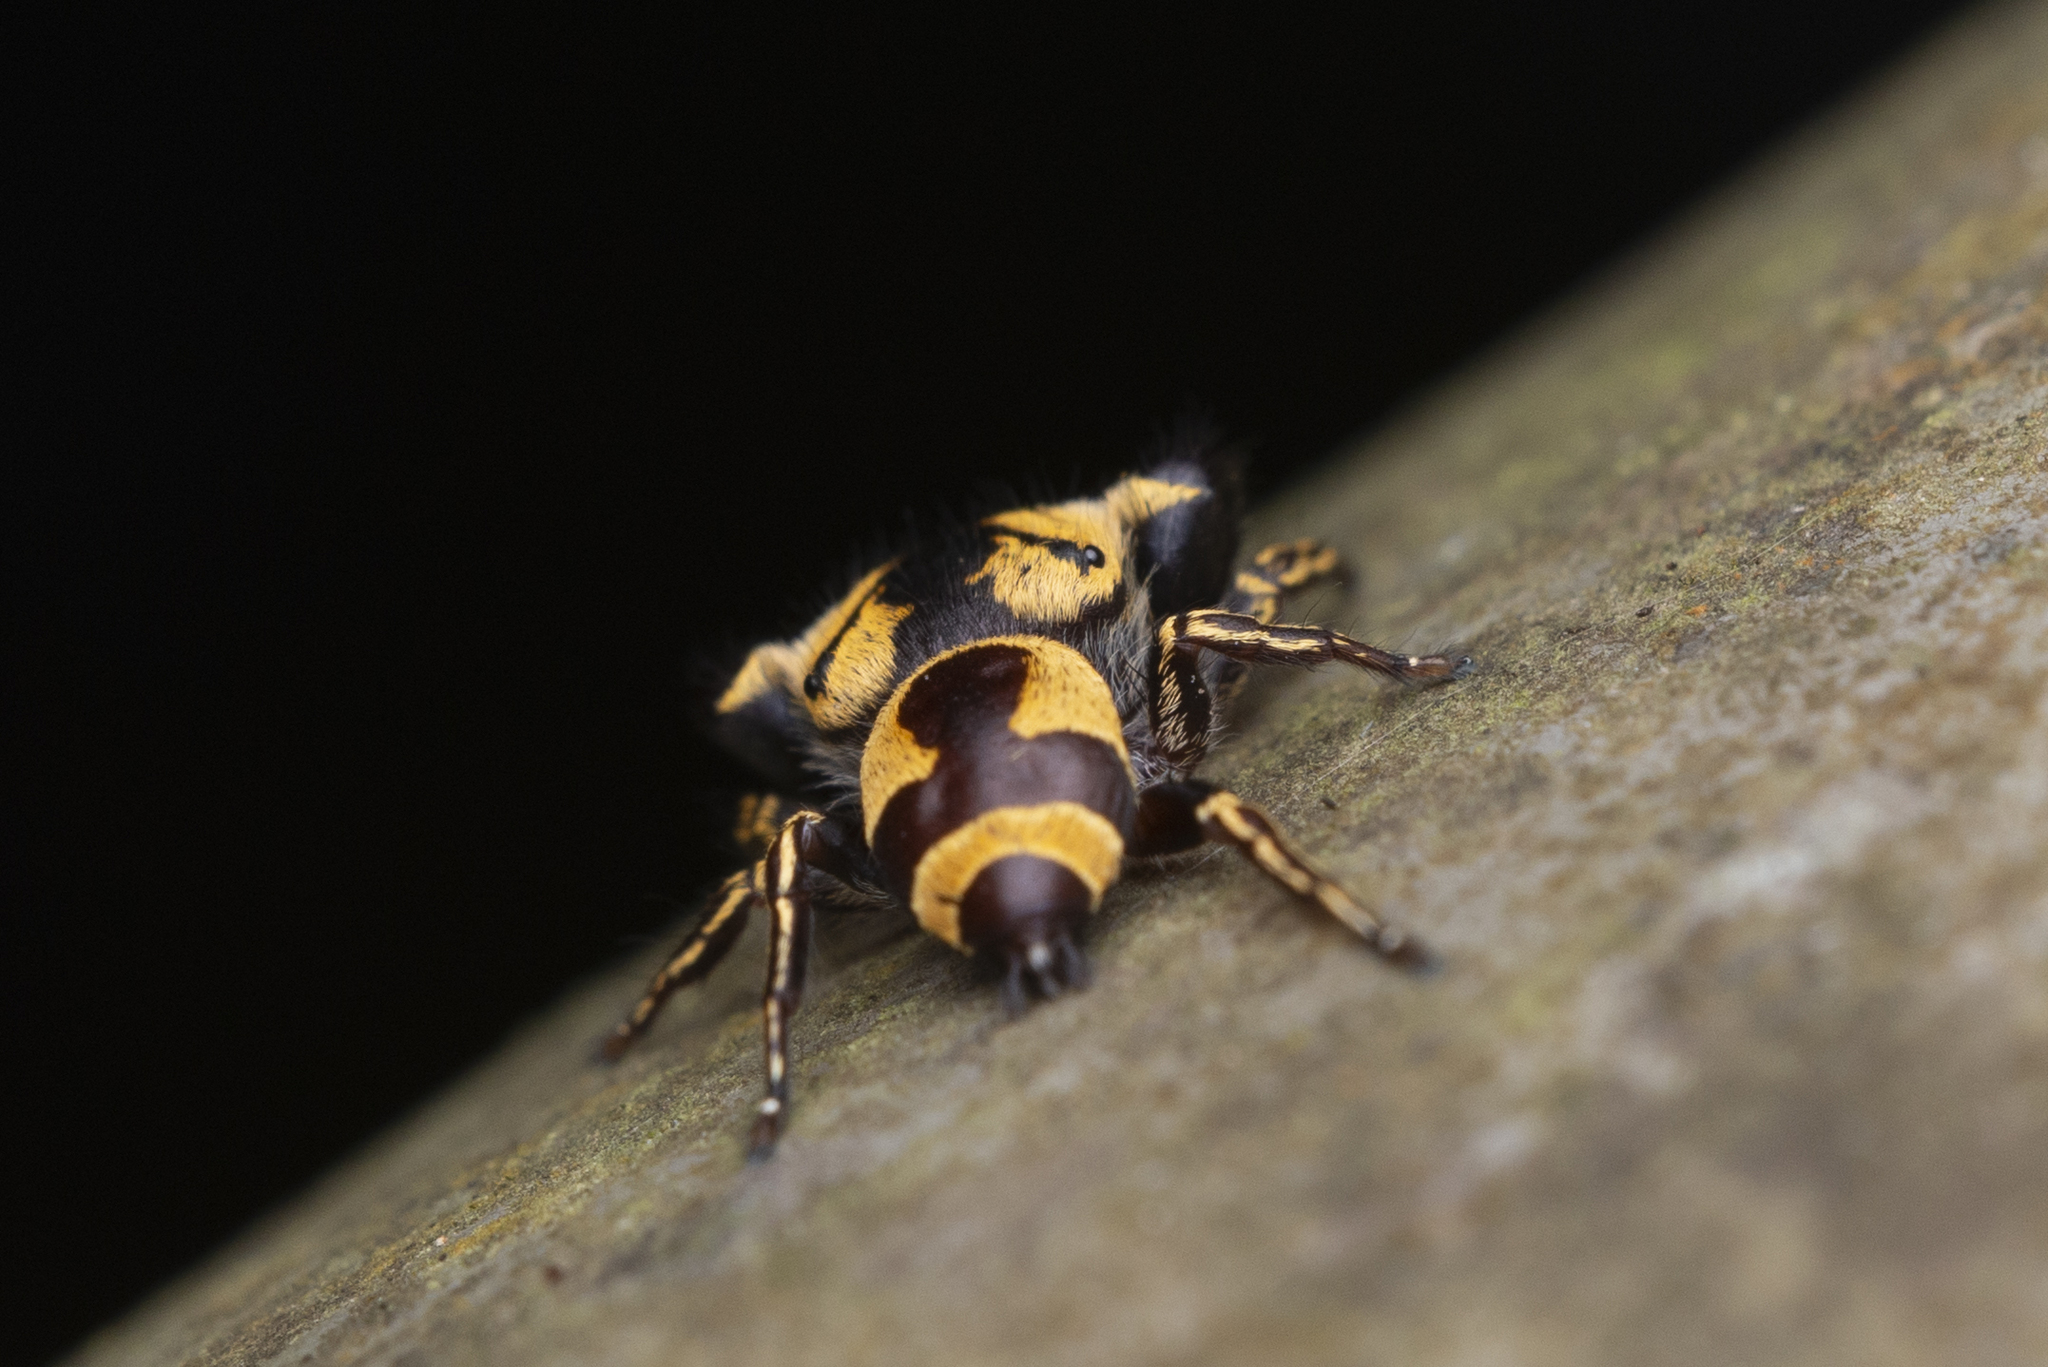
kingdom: Animalia
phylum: Arthropoda
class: Arachnida
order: Araneae
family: Salticidae
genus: Rhene
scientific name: Rhene flavicomans
